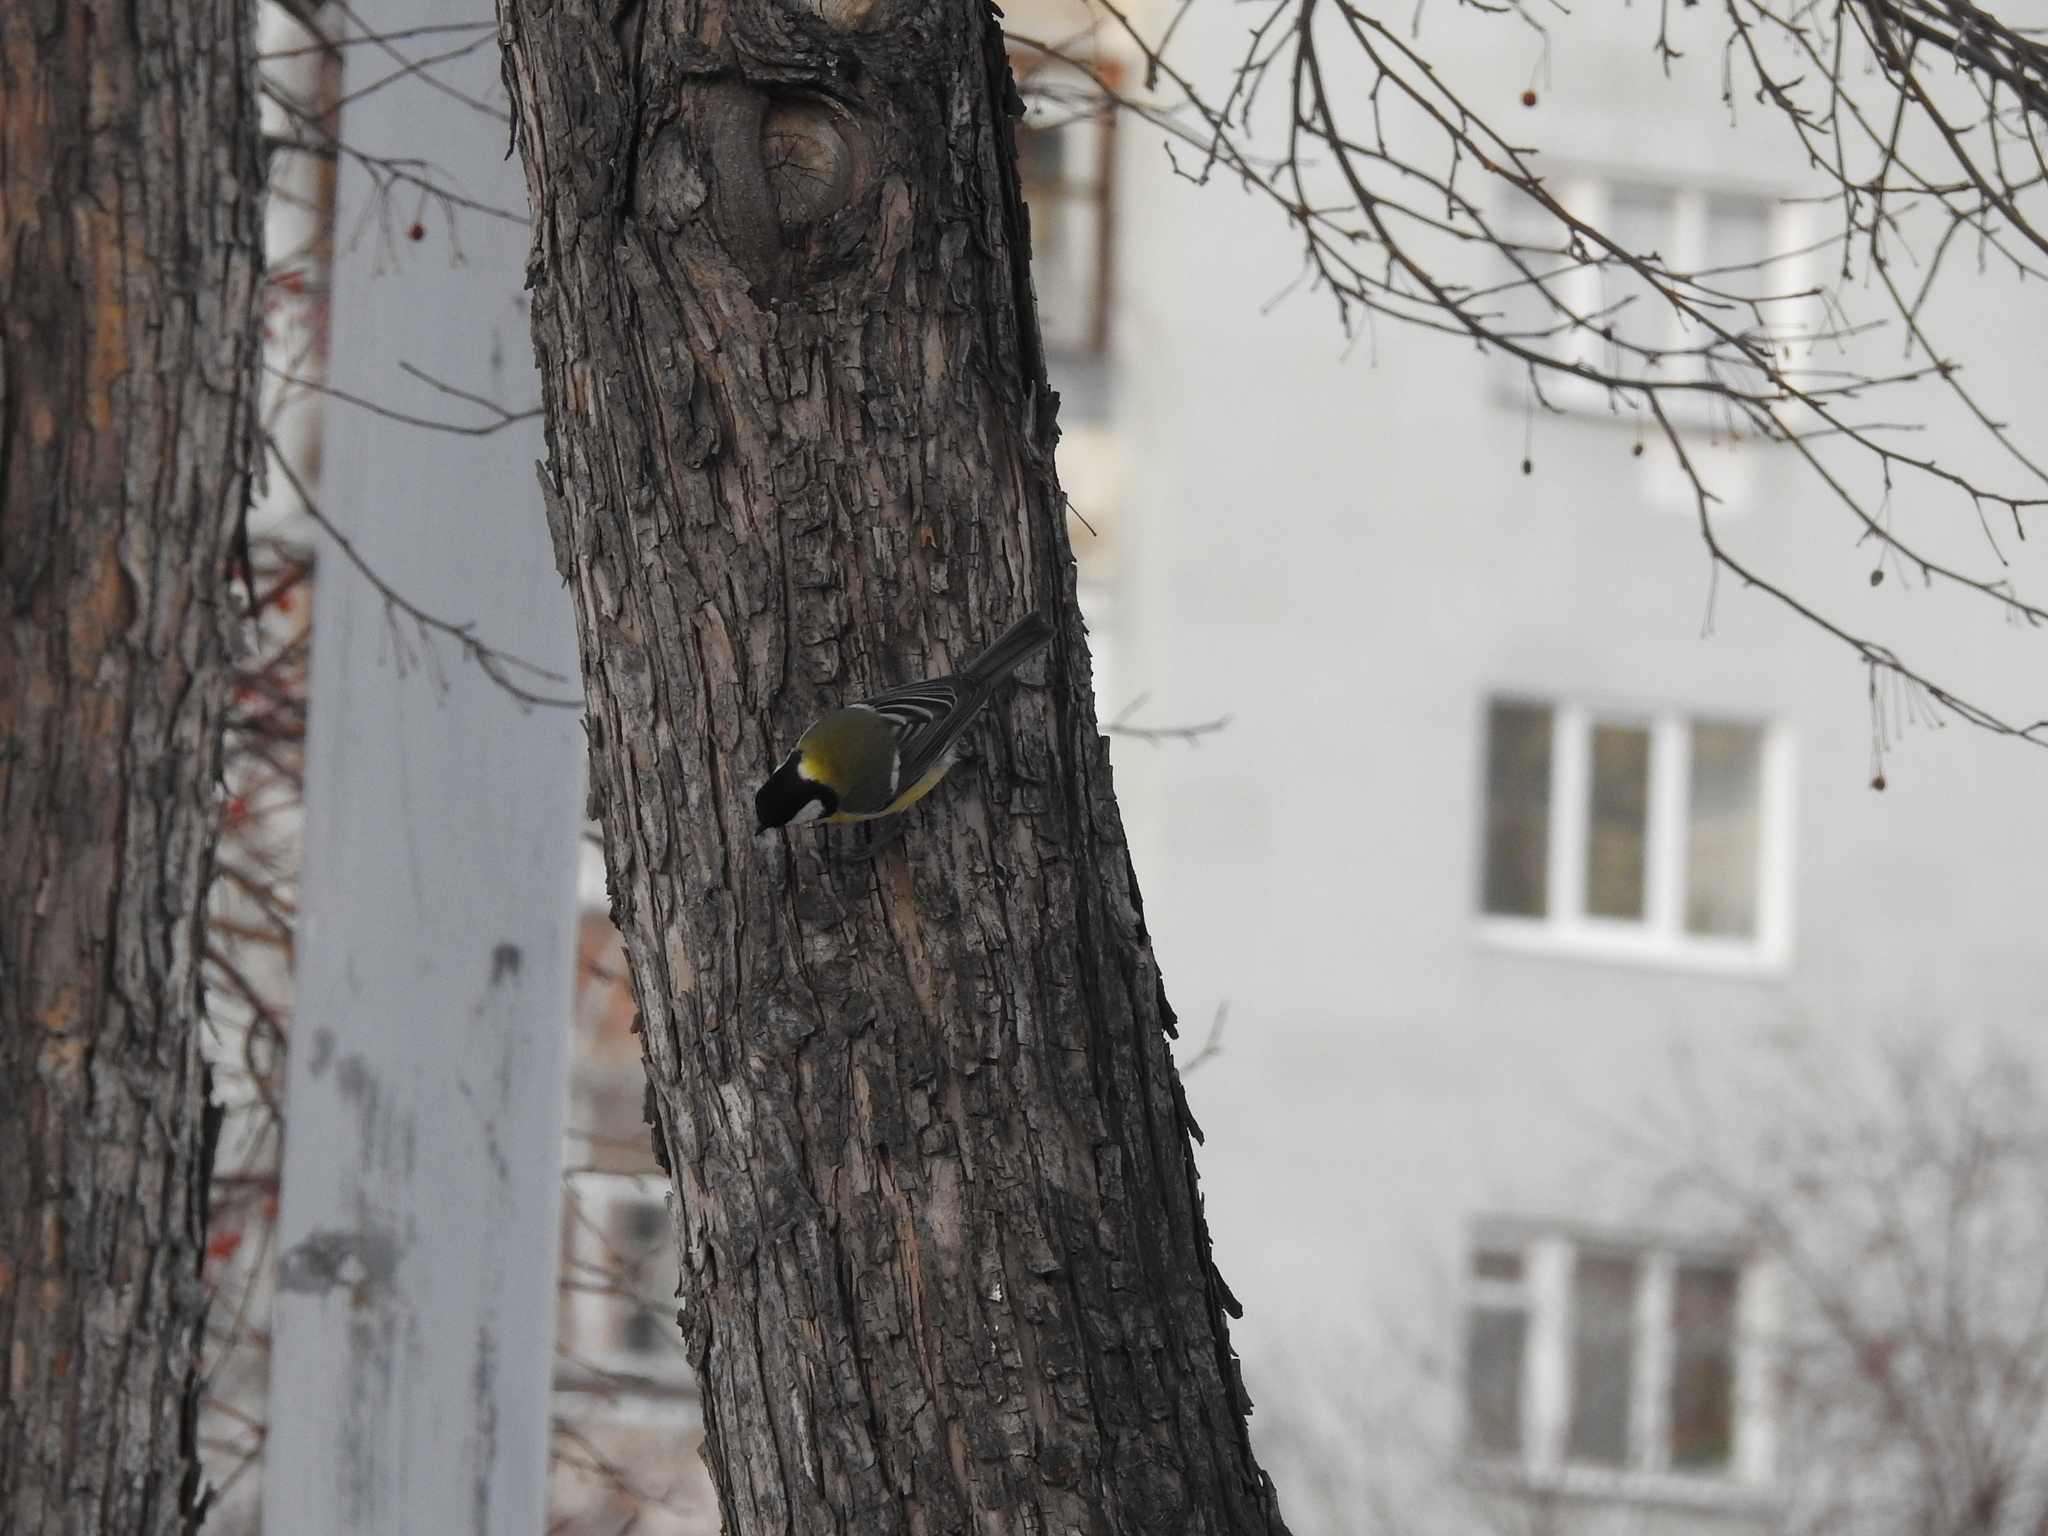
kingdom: Animalia
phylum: Chordata
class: Aves
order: Passeriformes
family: Paridae
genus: Parus
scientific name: Parus major
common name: Great tit
